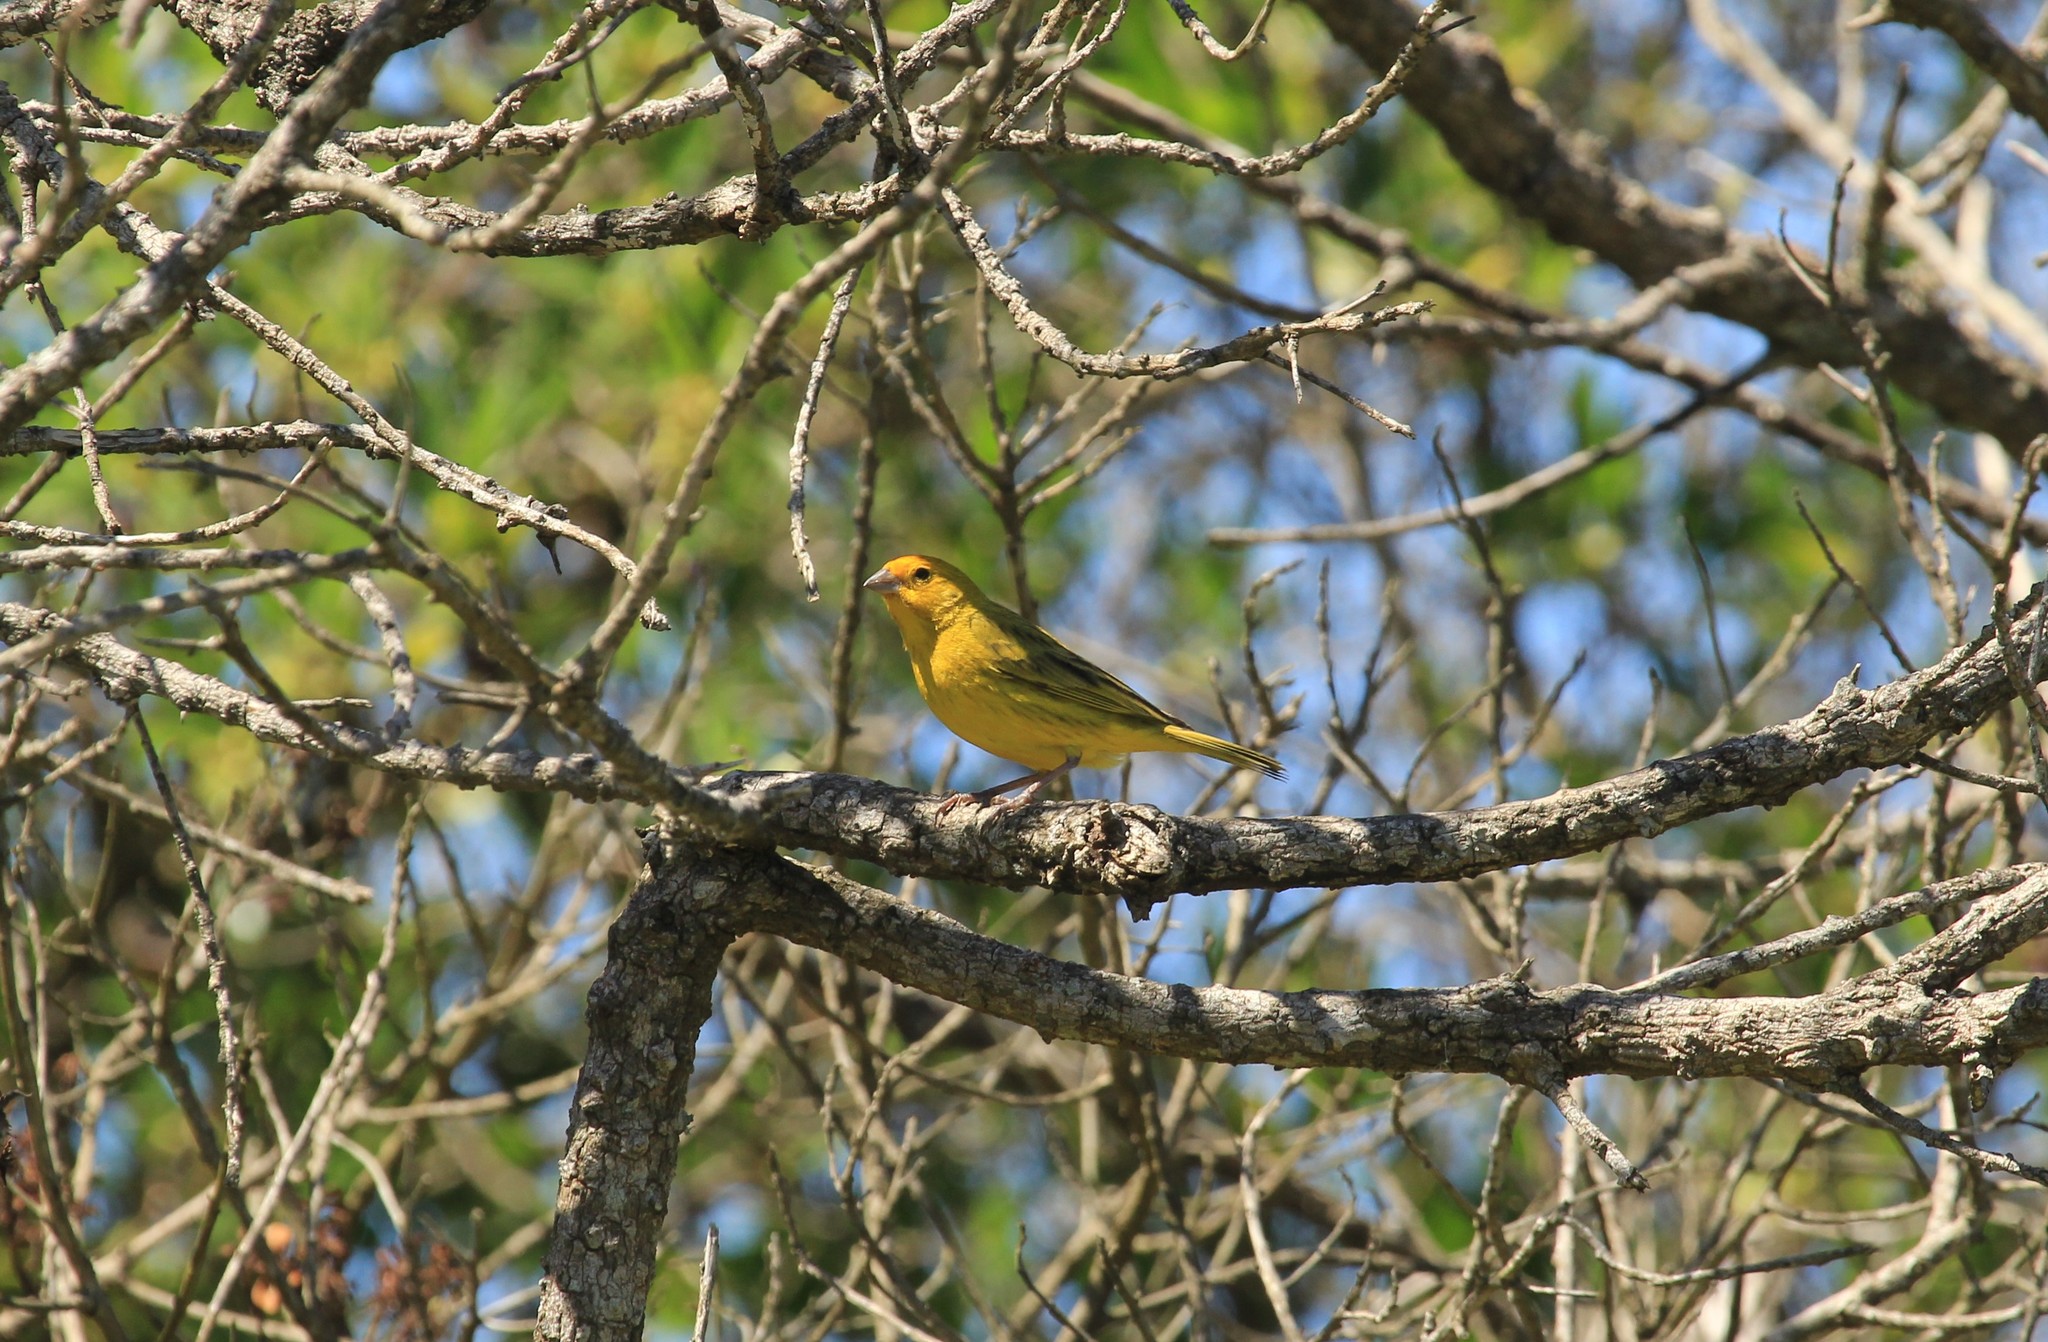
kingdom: Animalia
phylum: Chordata
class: Aves
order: Passeriformes
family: Thraupidae
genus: Sicalis
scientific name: Sicalis flaveola
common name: Saffron finch
